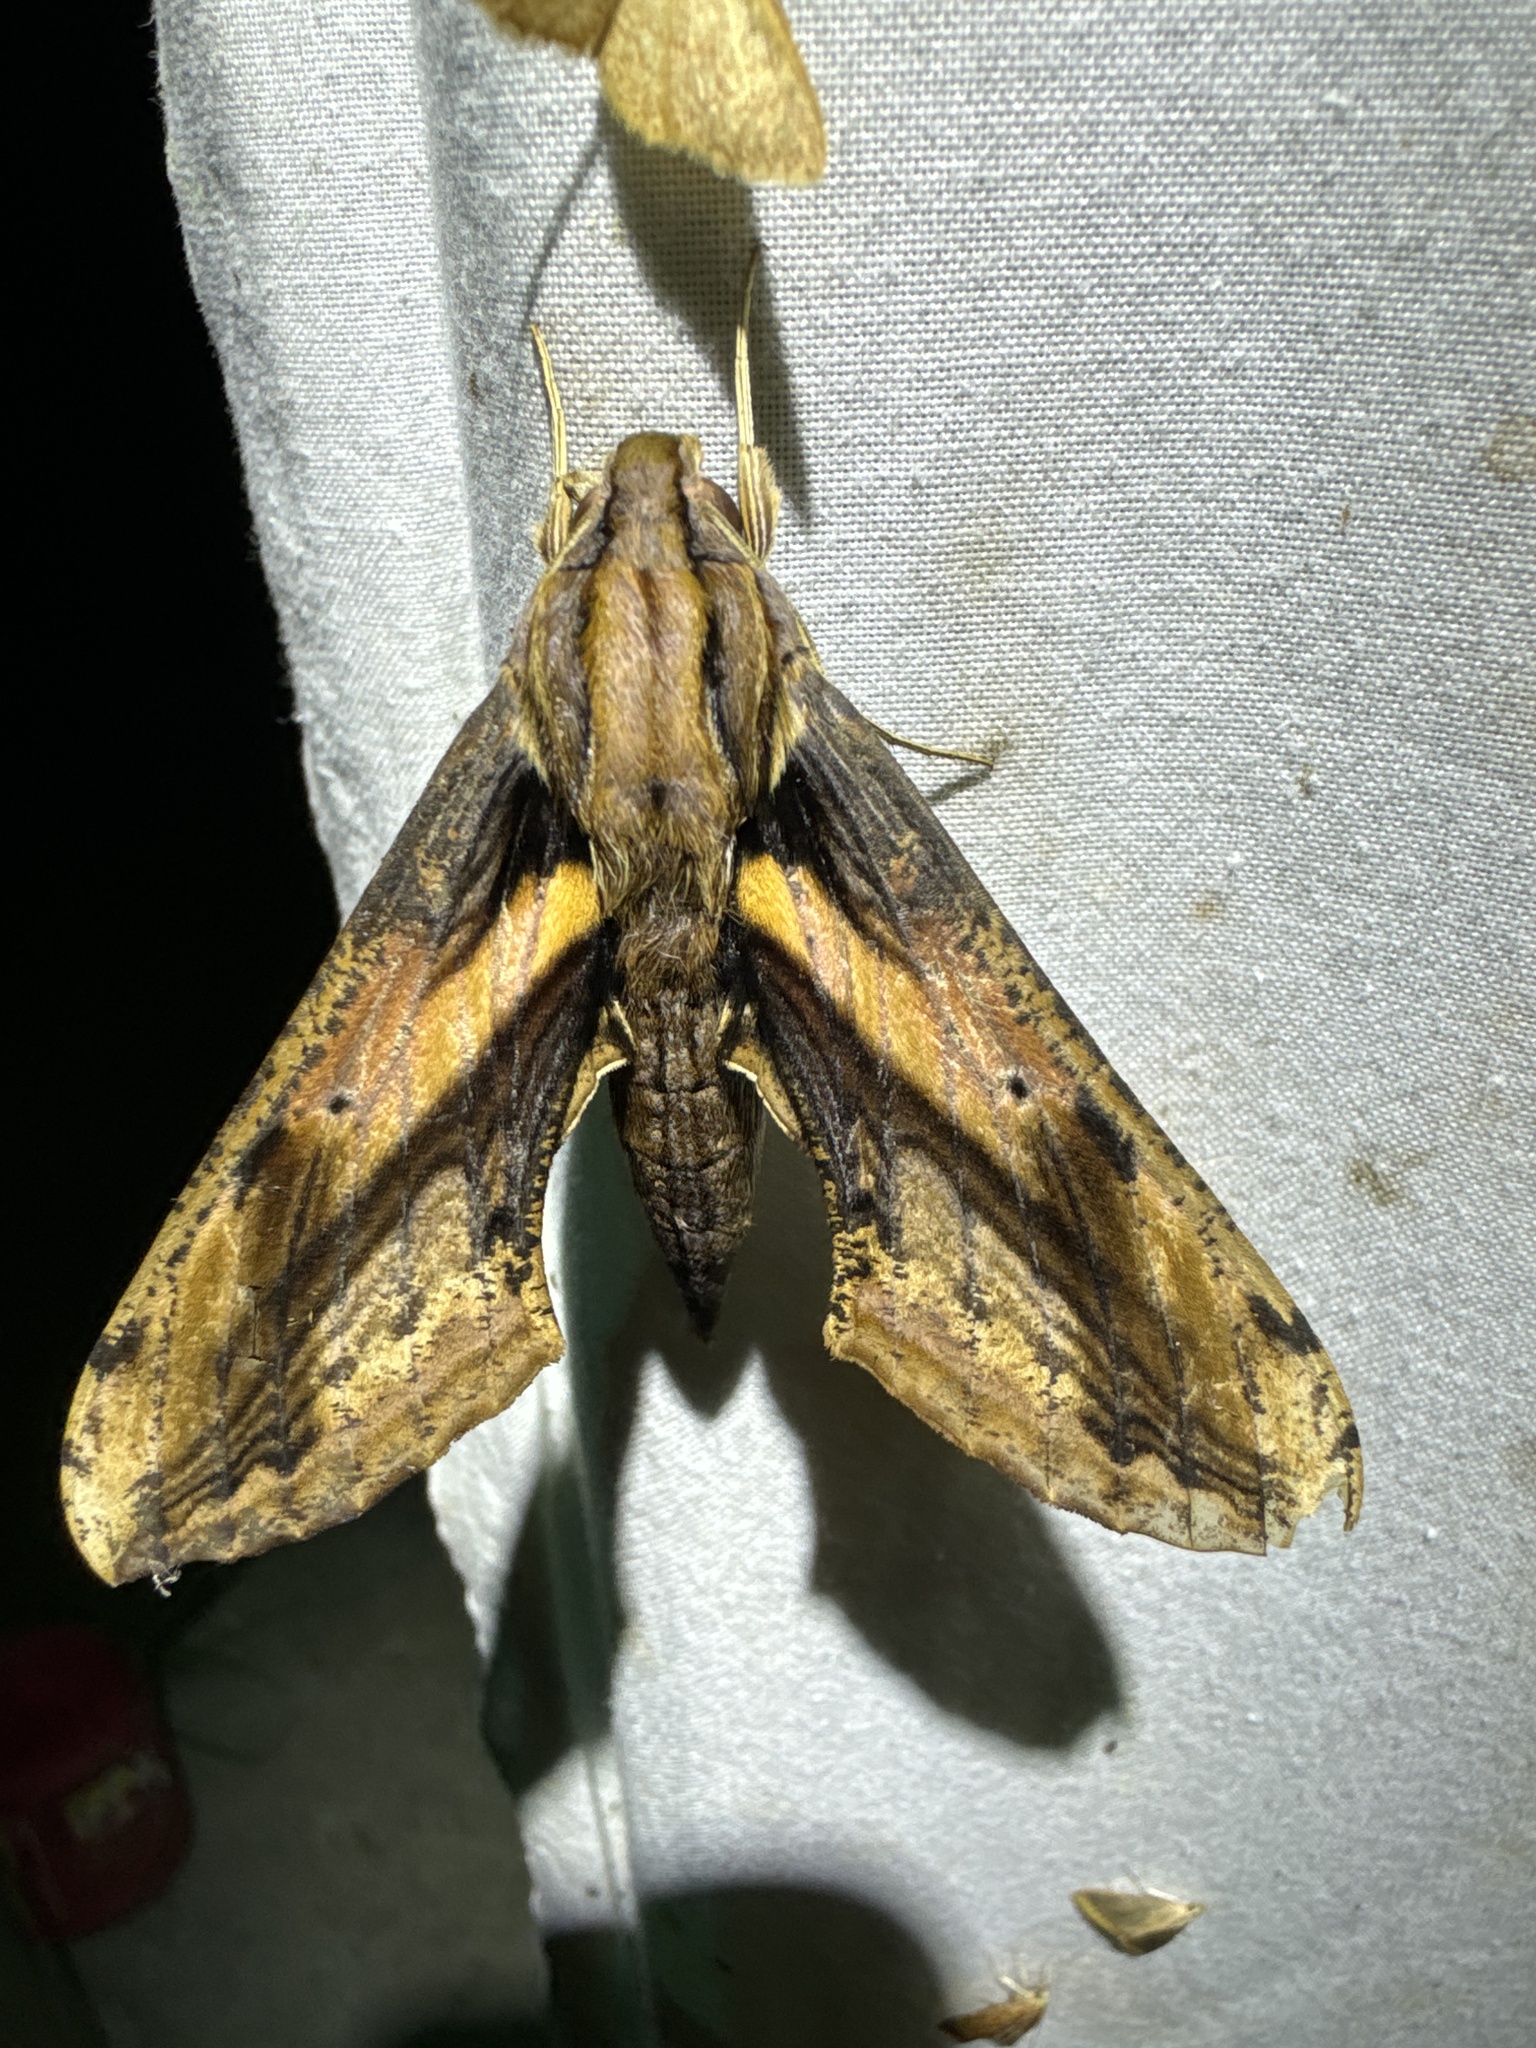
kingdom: Animalia
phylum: Arthropoda
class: Insecta
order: Lepidoptera
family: Sphingidae
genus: Xylophanes
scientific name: Xylophanes ceratomioides
